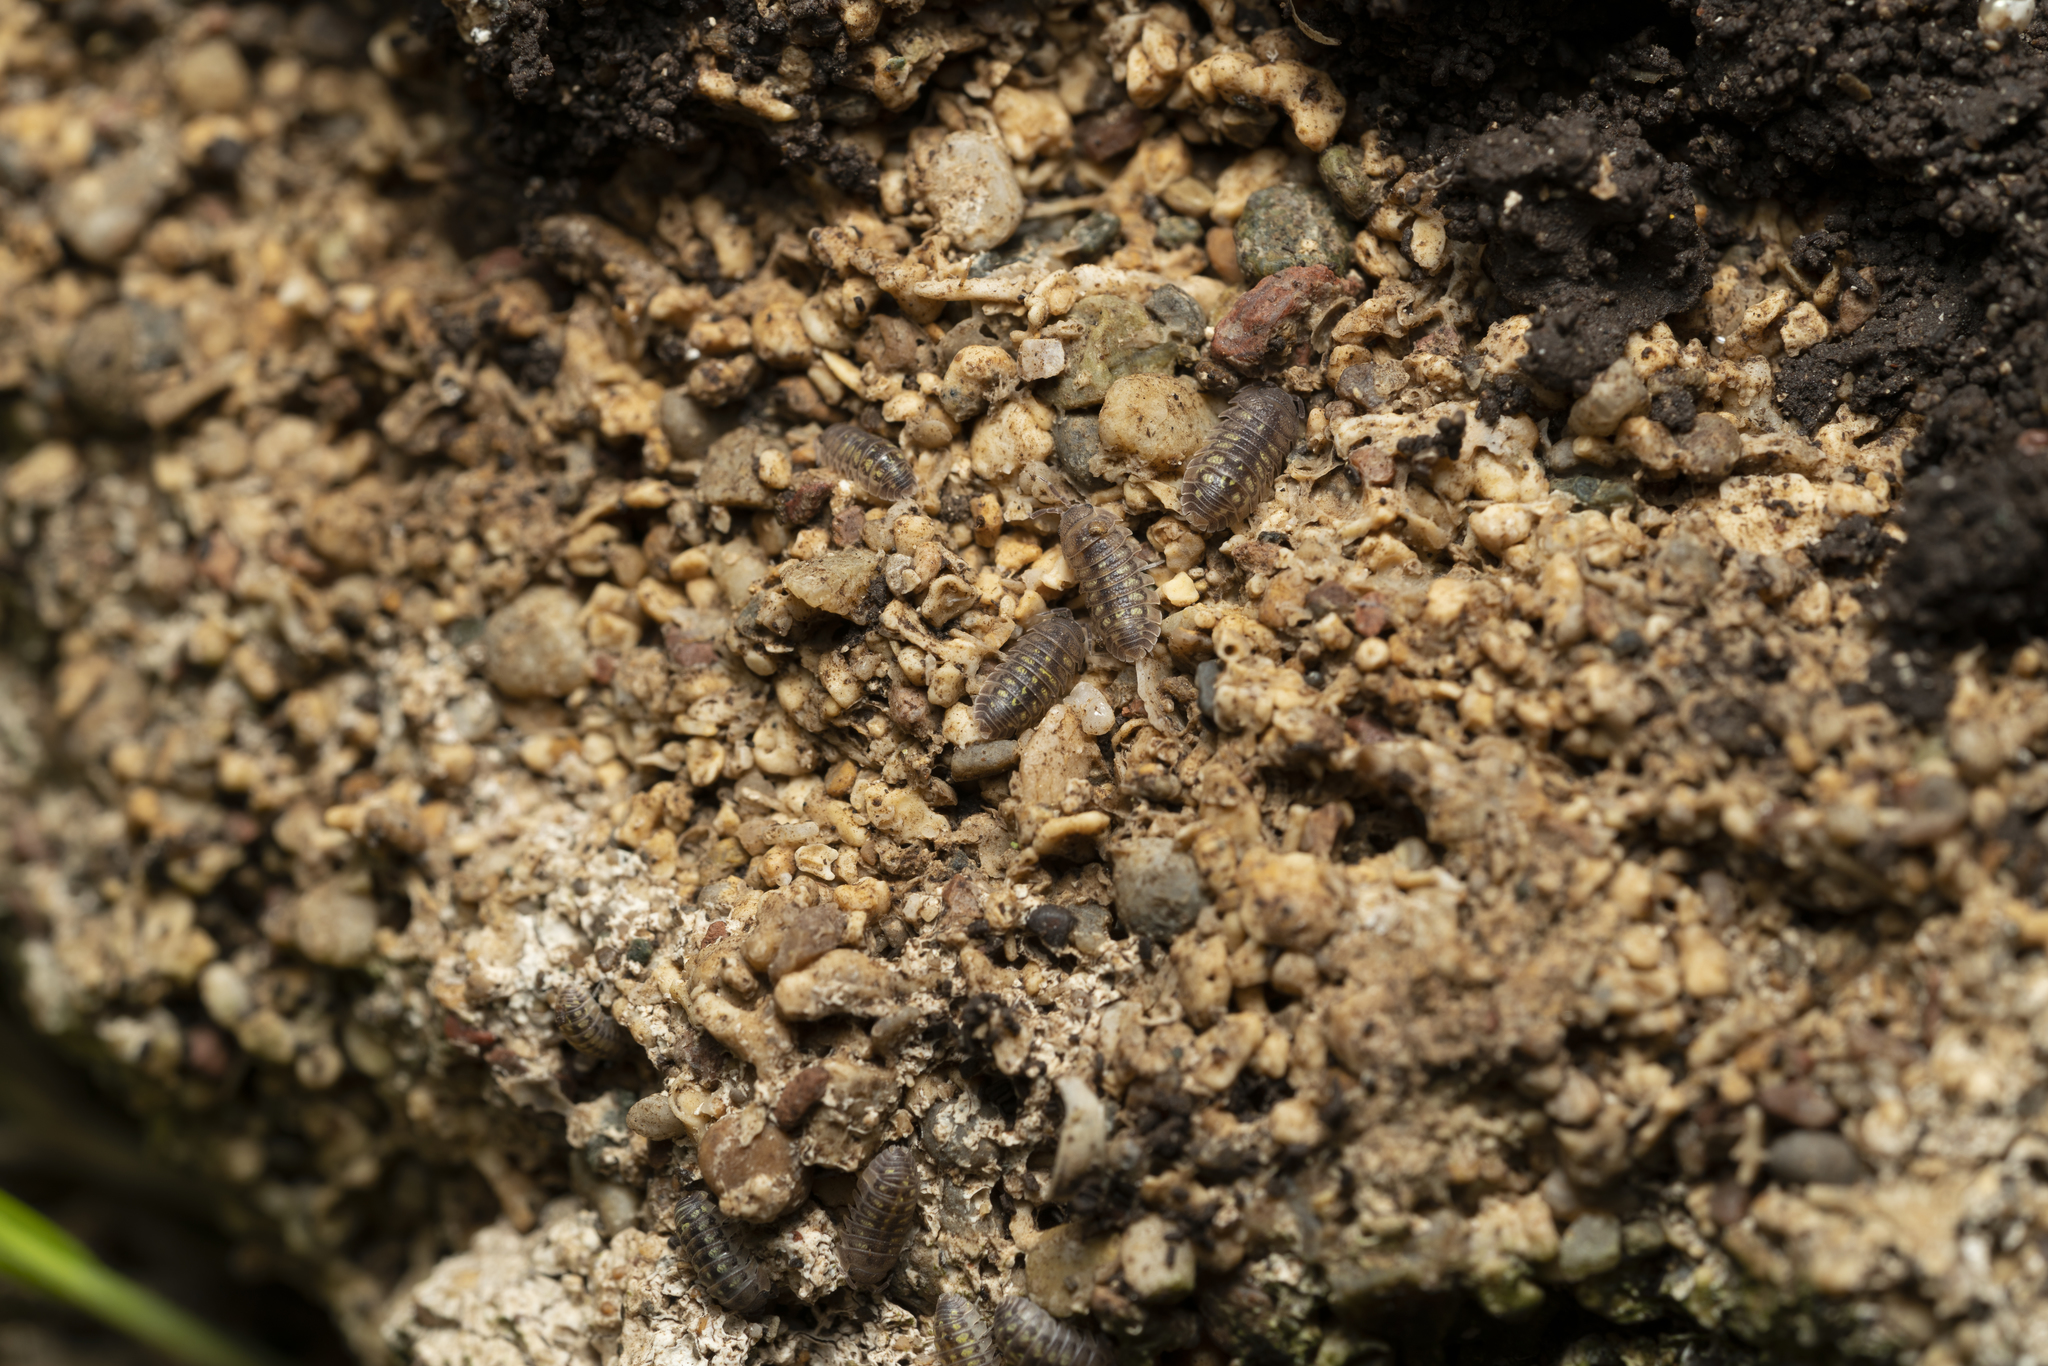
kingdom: Animalia
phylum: Arthropoda
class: Malacostraca
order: Isopoda
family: Armadillidiidae
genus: Armadillidium
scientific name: Armadillidium granulatum
